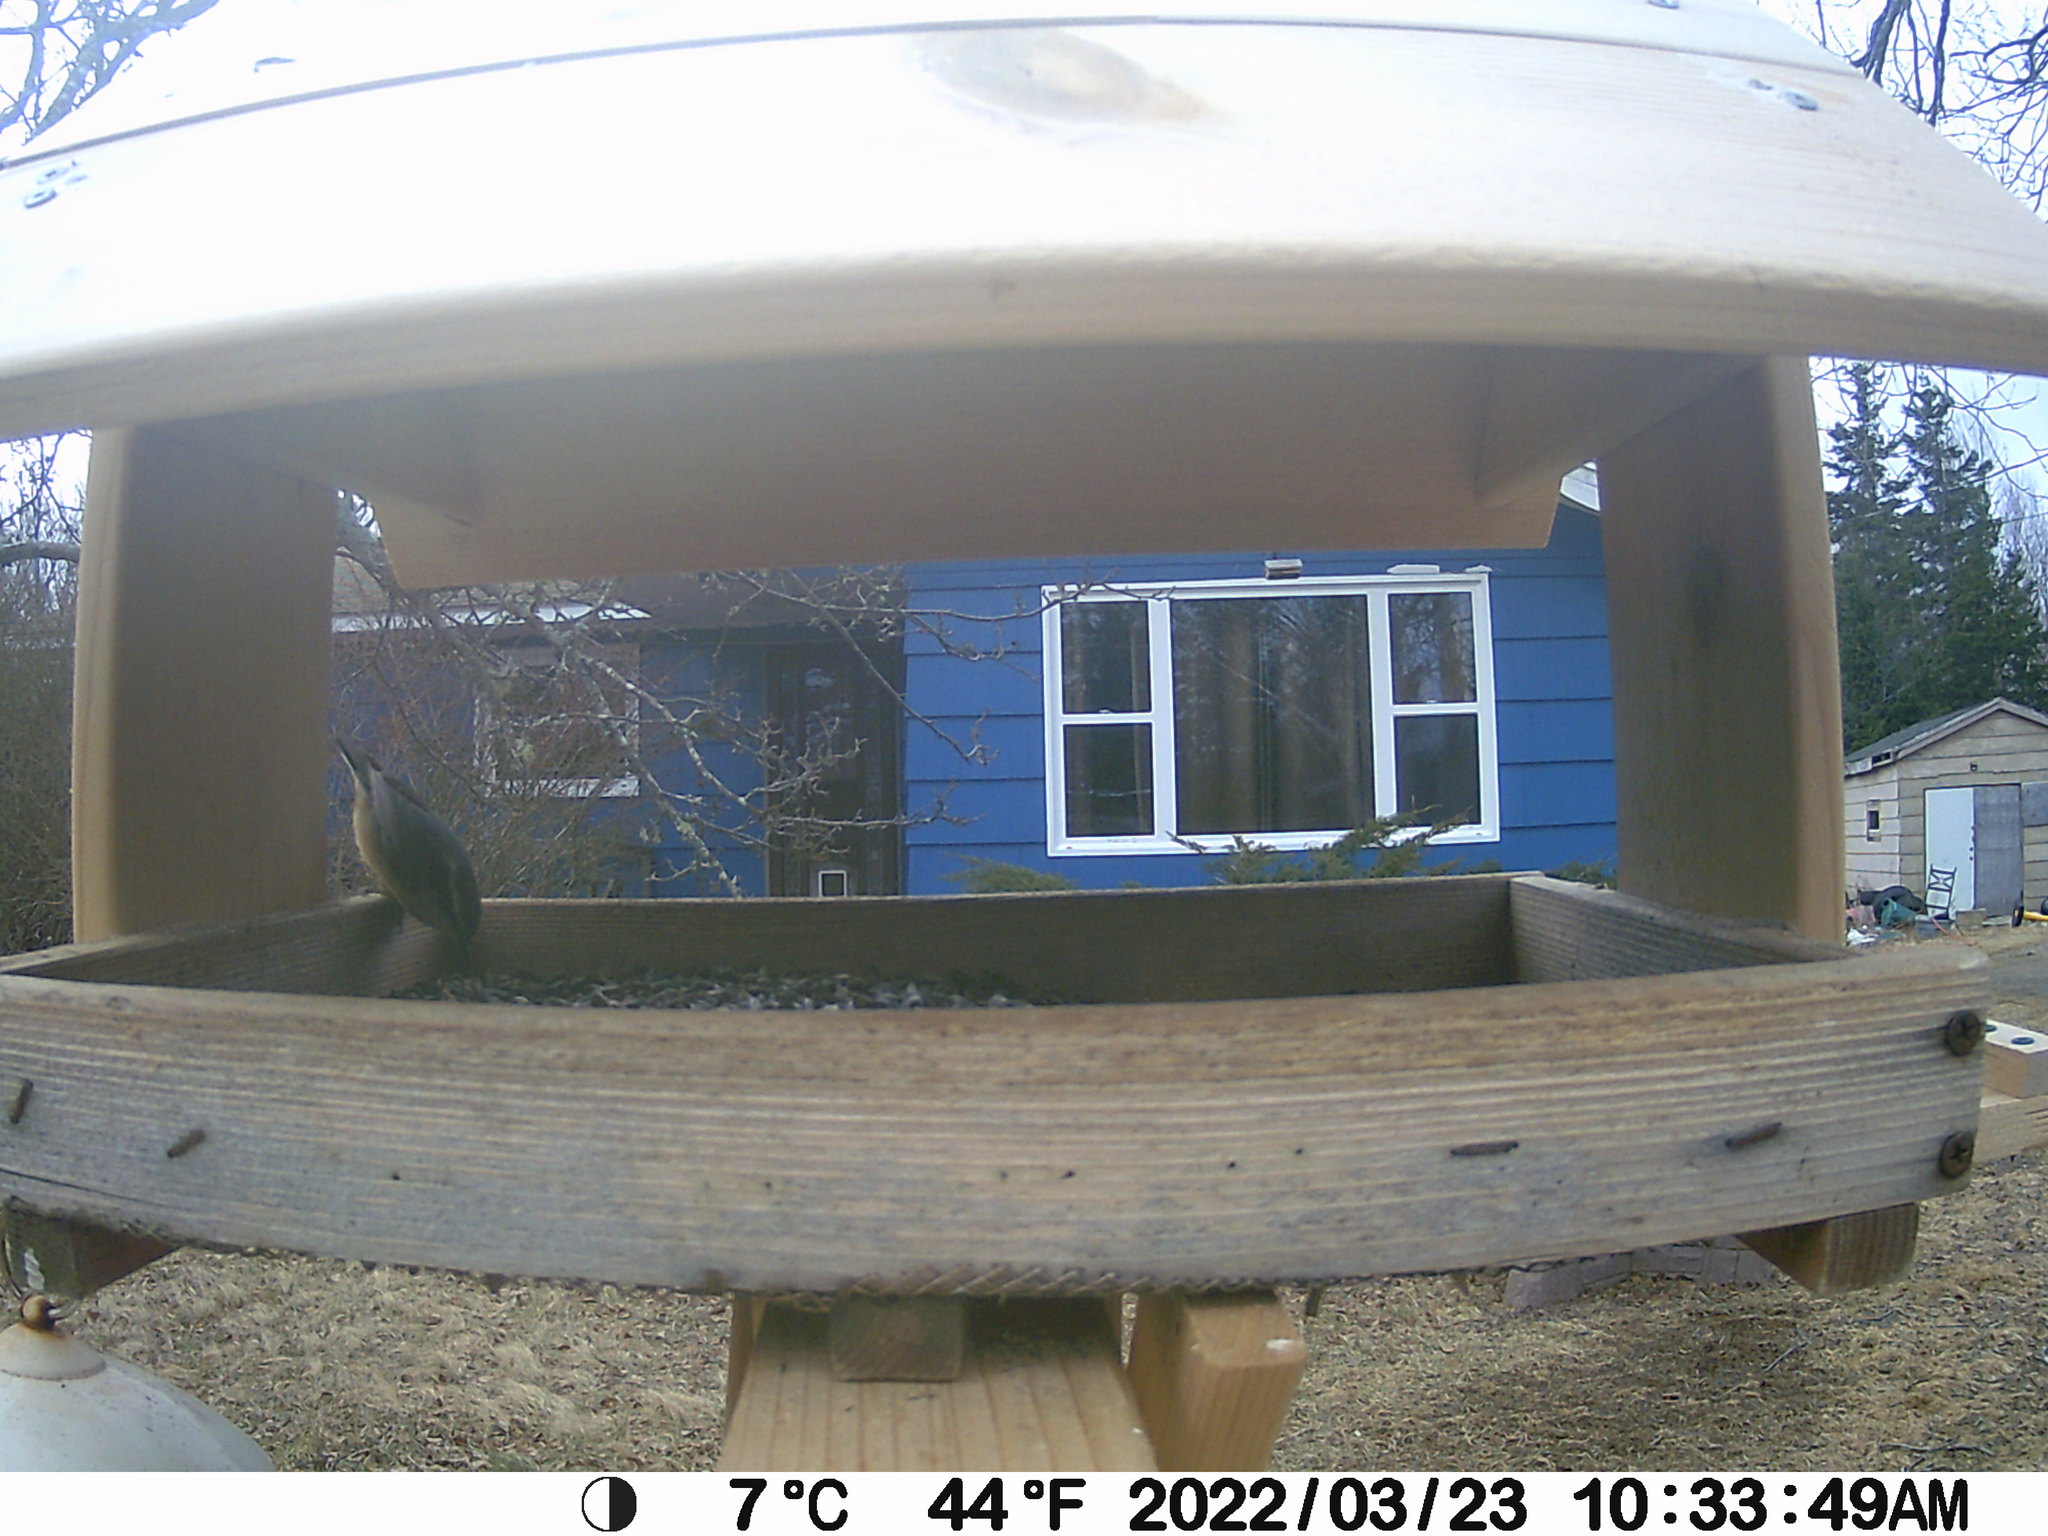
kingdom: Animalia
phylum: Chordata
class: Aves
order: Passeriformes
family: Sittidae
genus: Sitta
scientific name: Sitta canadensis
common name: Red-breasted nuthatch
